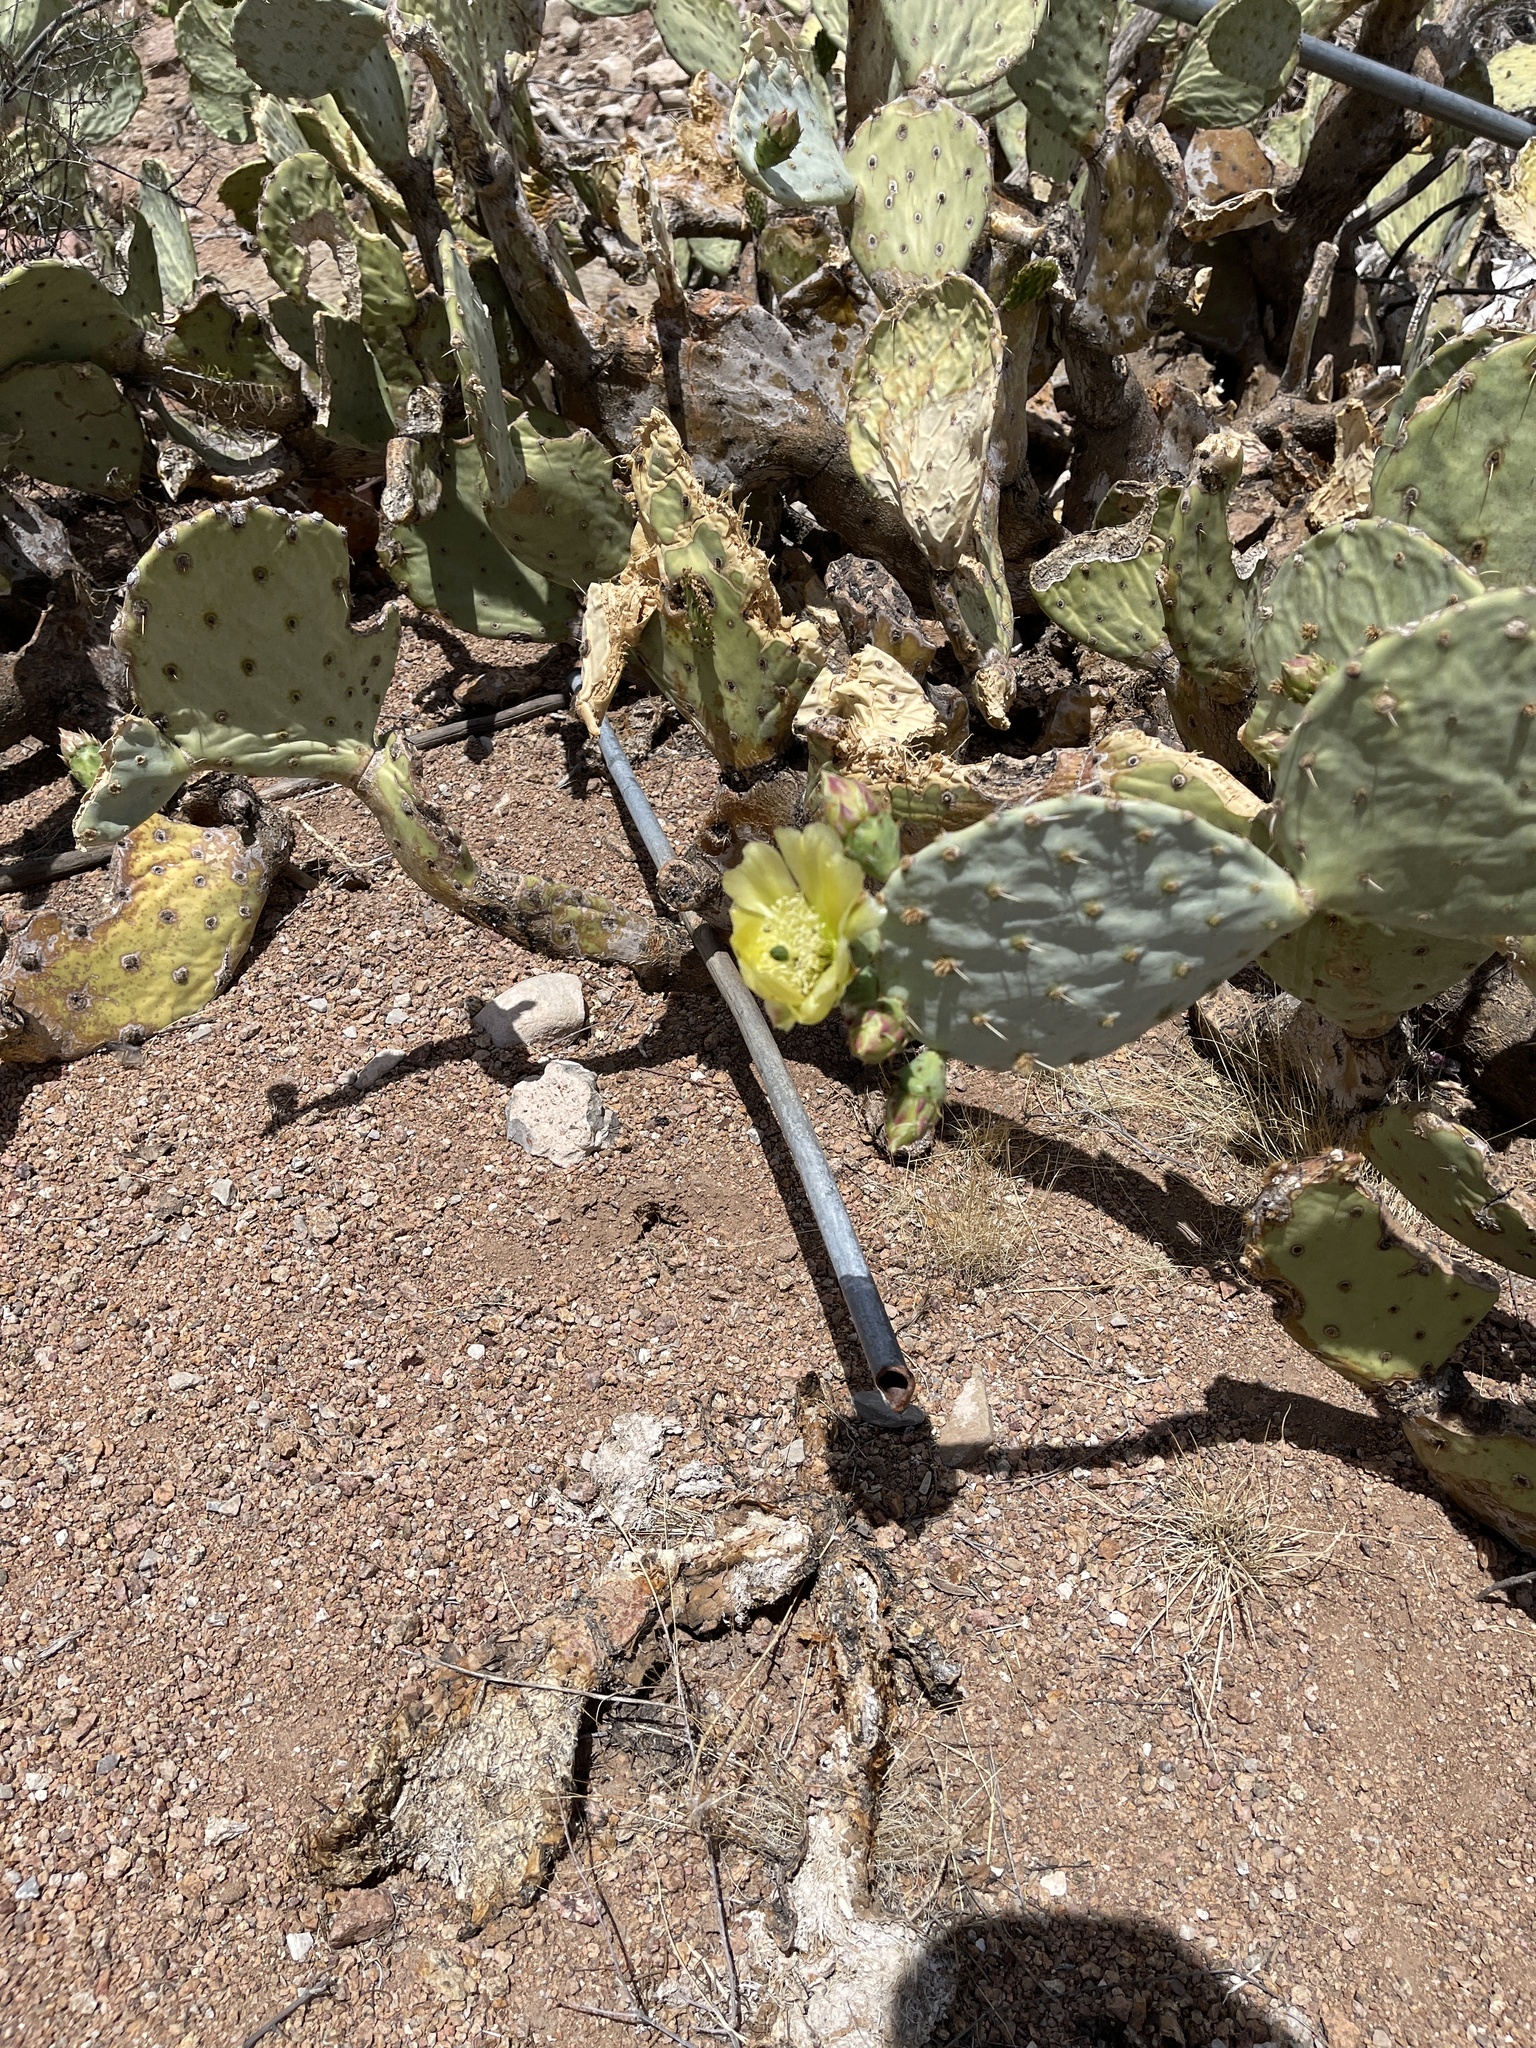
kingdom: Plantae
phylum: Tracheophyta
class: Magnoliopsida
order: Caryophyllales
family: Cactaceae
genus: Opuntia
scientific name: Opuntia engelmannii
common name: Cactus-apple
